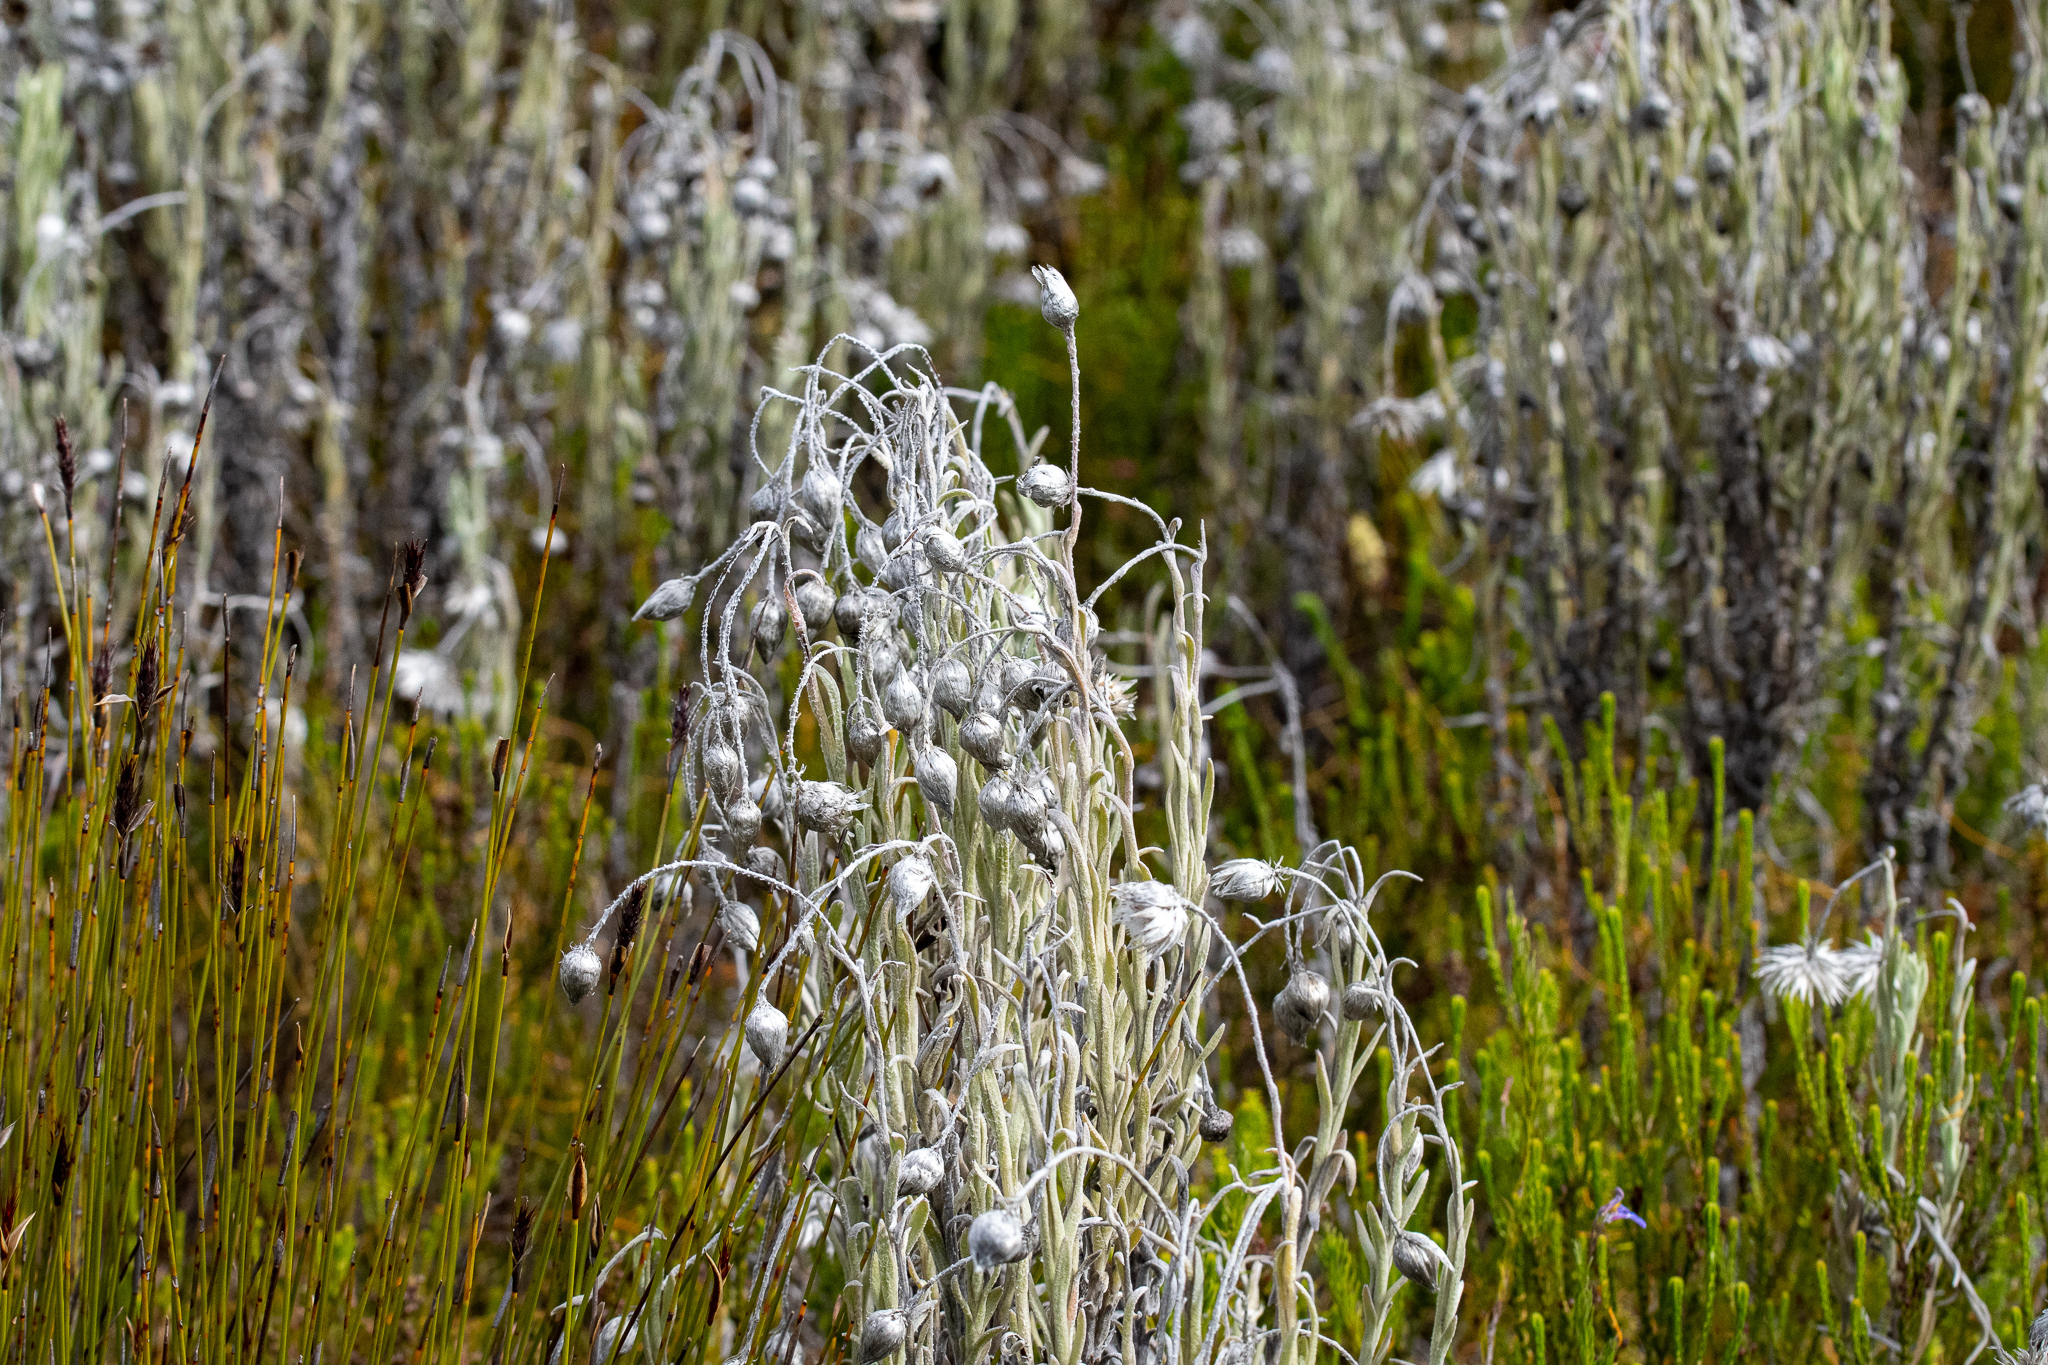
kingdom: Plantae
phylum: Tracheophyta
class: Magnoliopsida
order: Asterales
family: Asteraceae
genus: Syncarpha
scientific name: Syncarpha vestita
